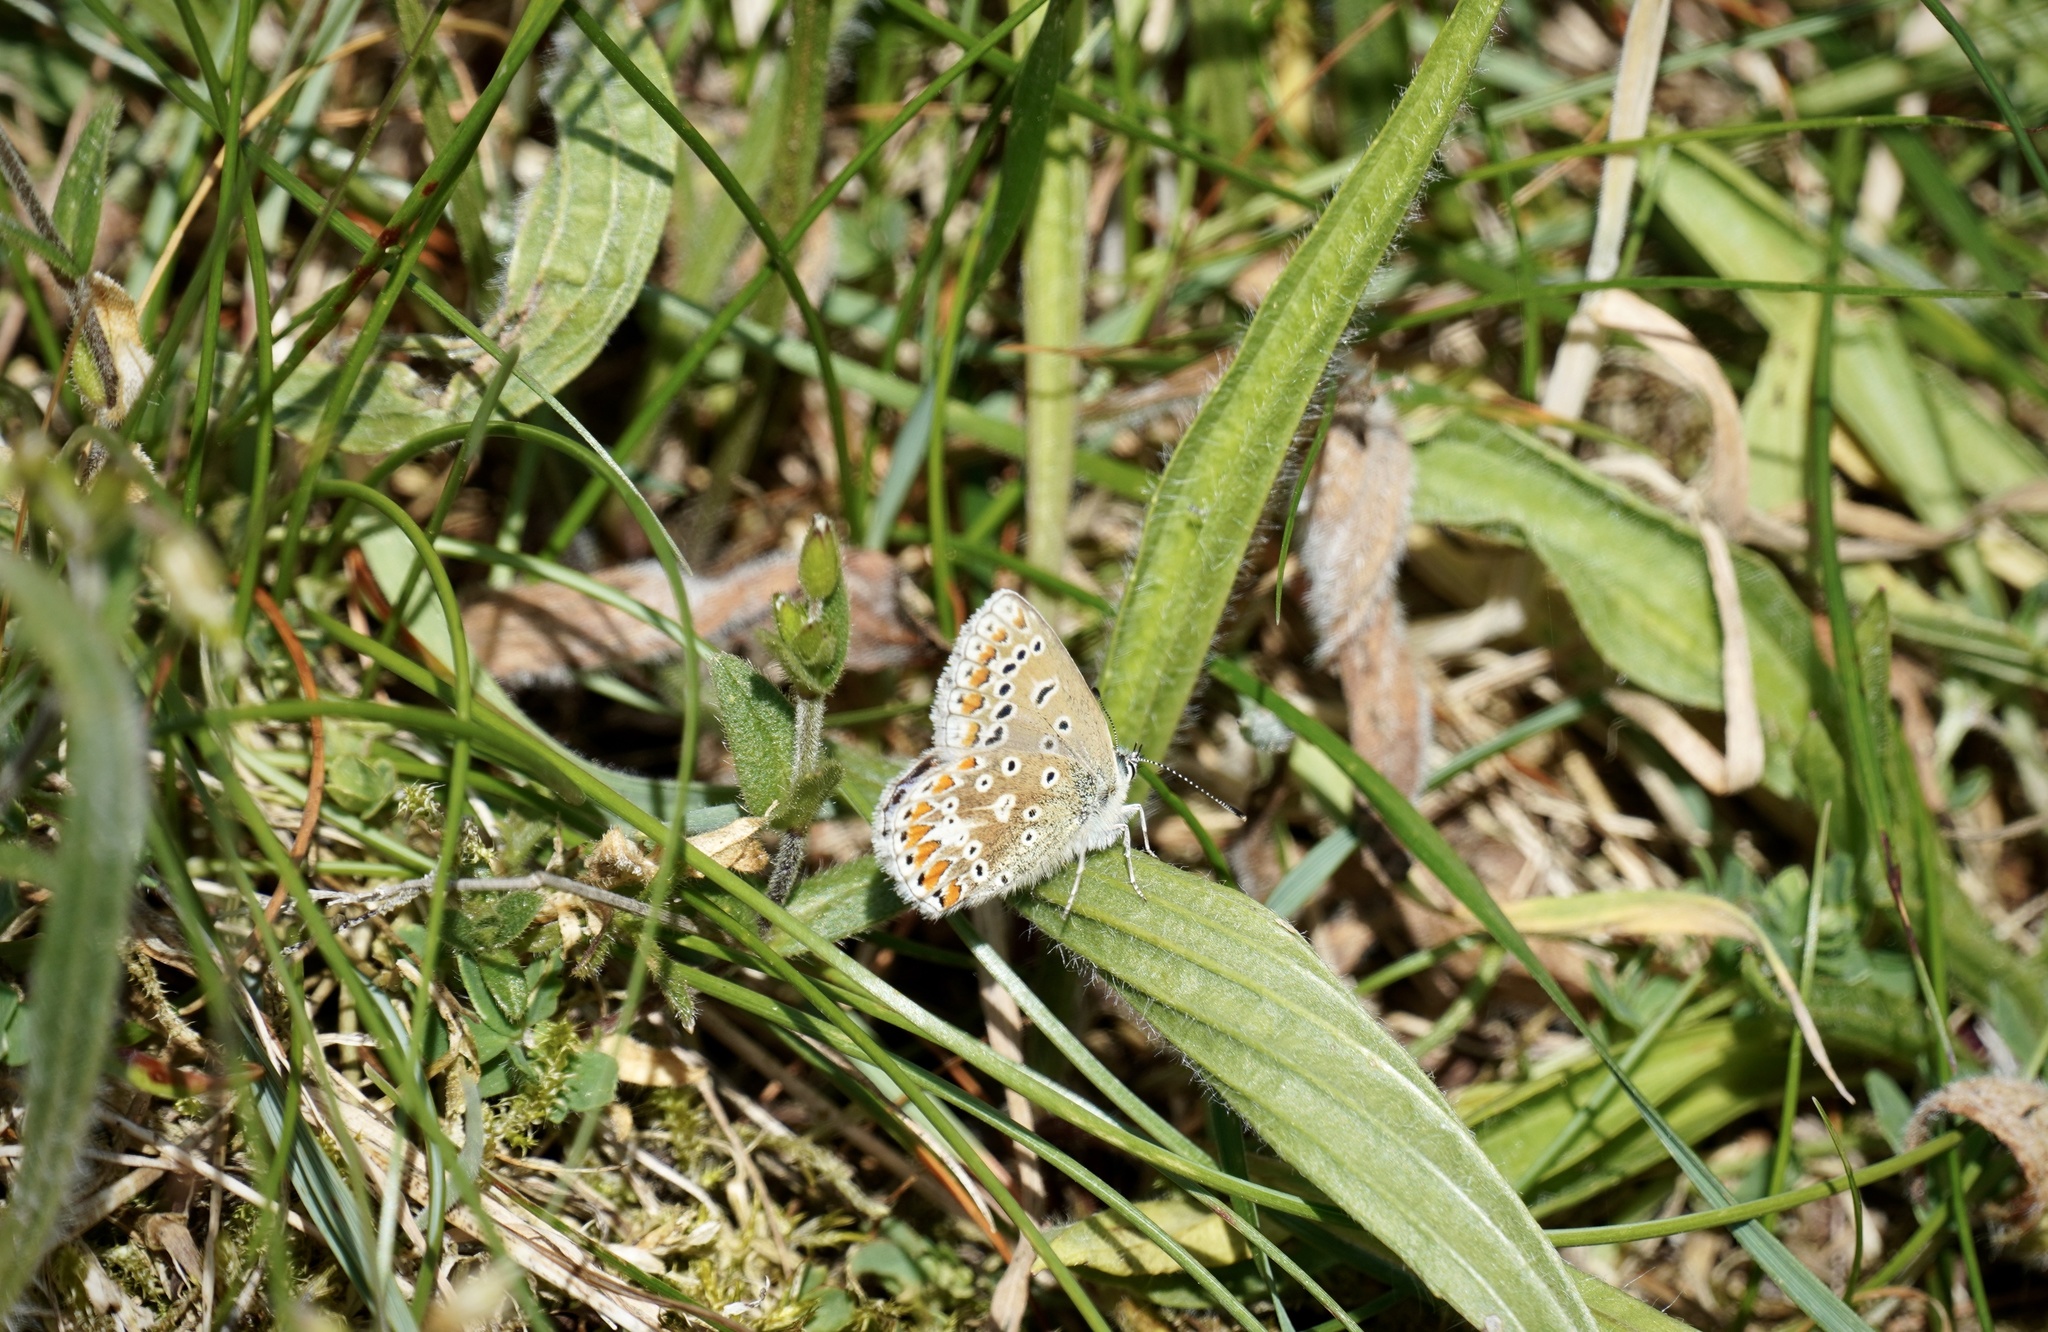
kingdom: Animalia
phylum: Arthropoda
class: Insecta
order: Lepidoptera
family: Lycaenidae
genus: Polyommatus
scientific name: Polyommatus icarus
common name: Common blue
